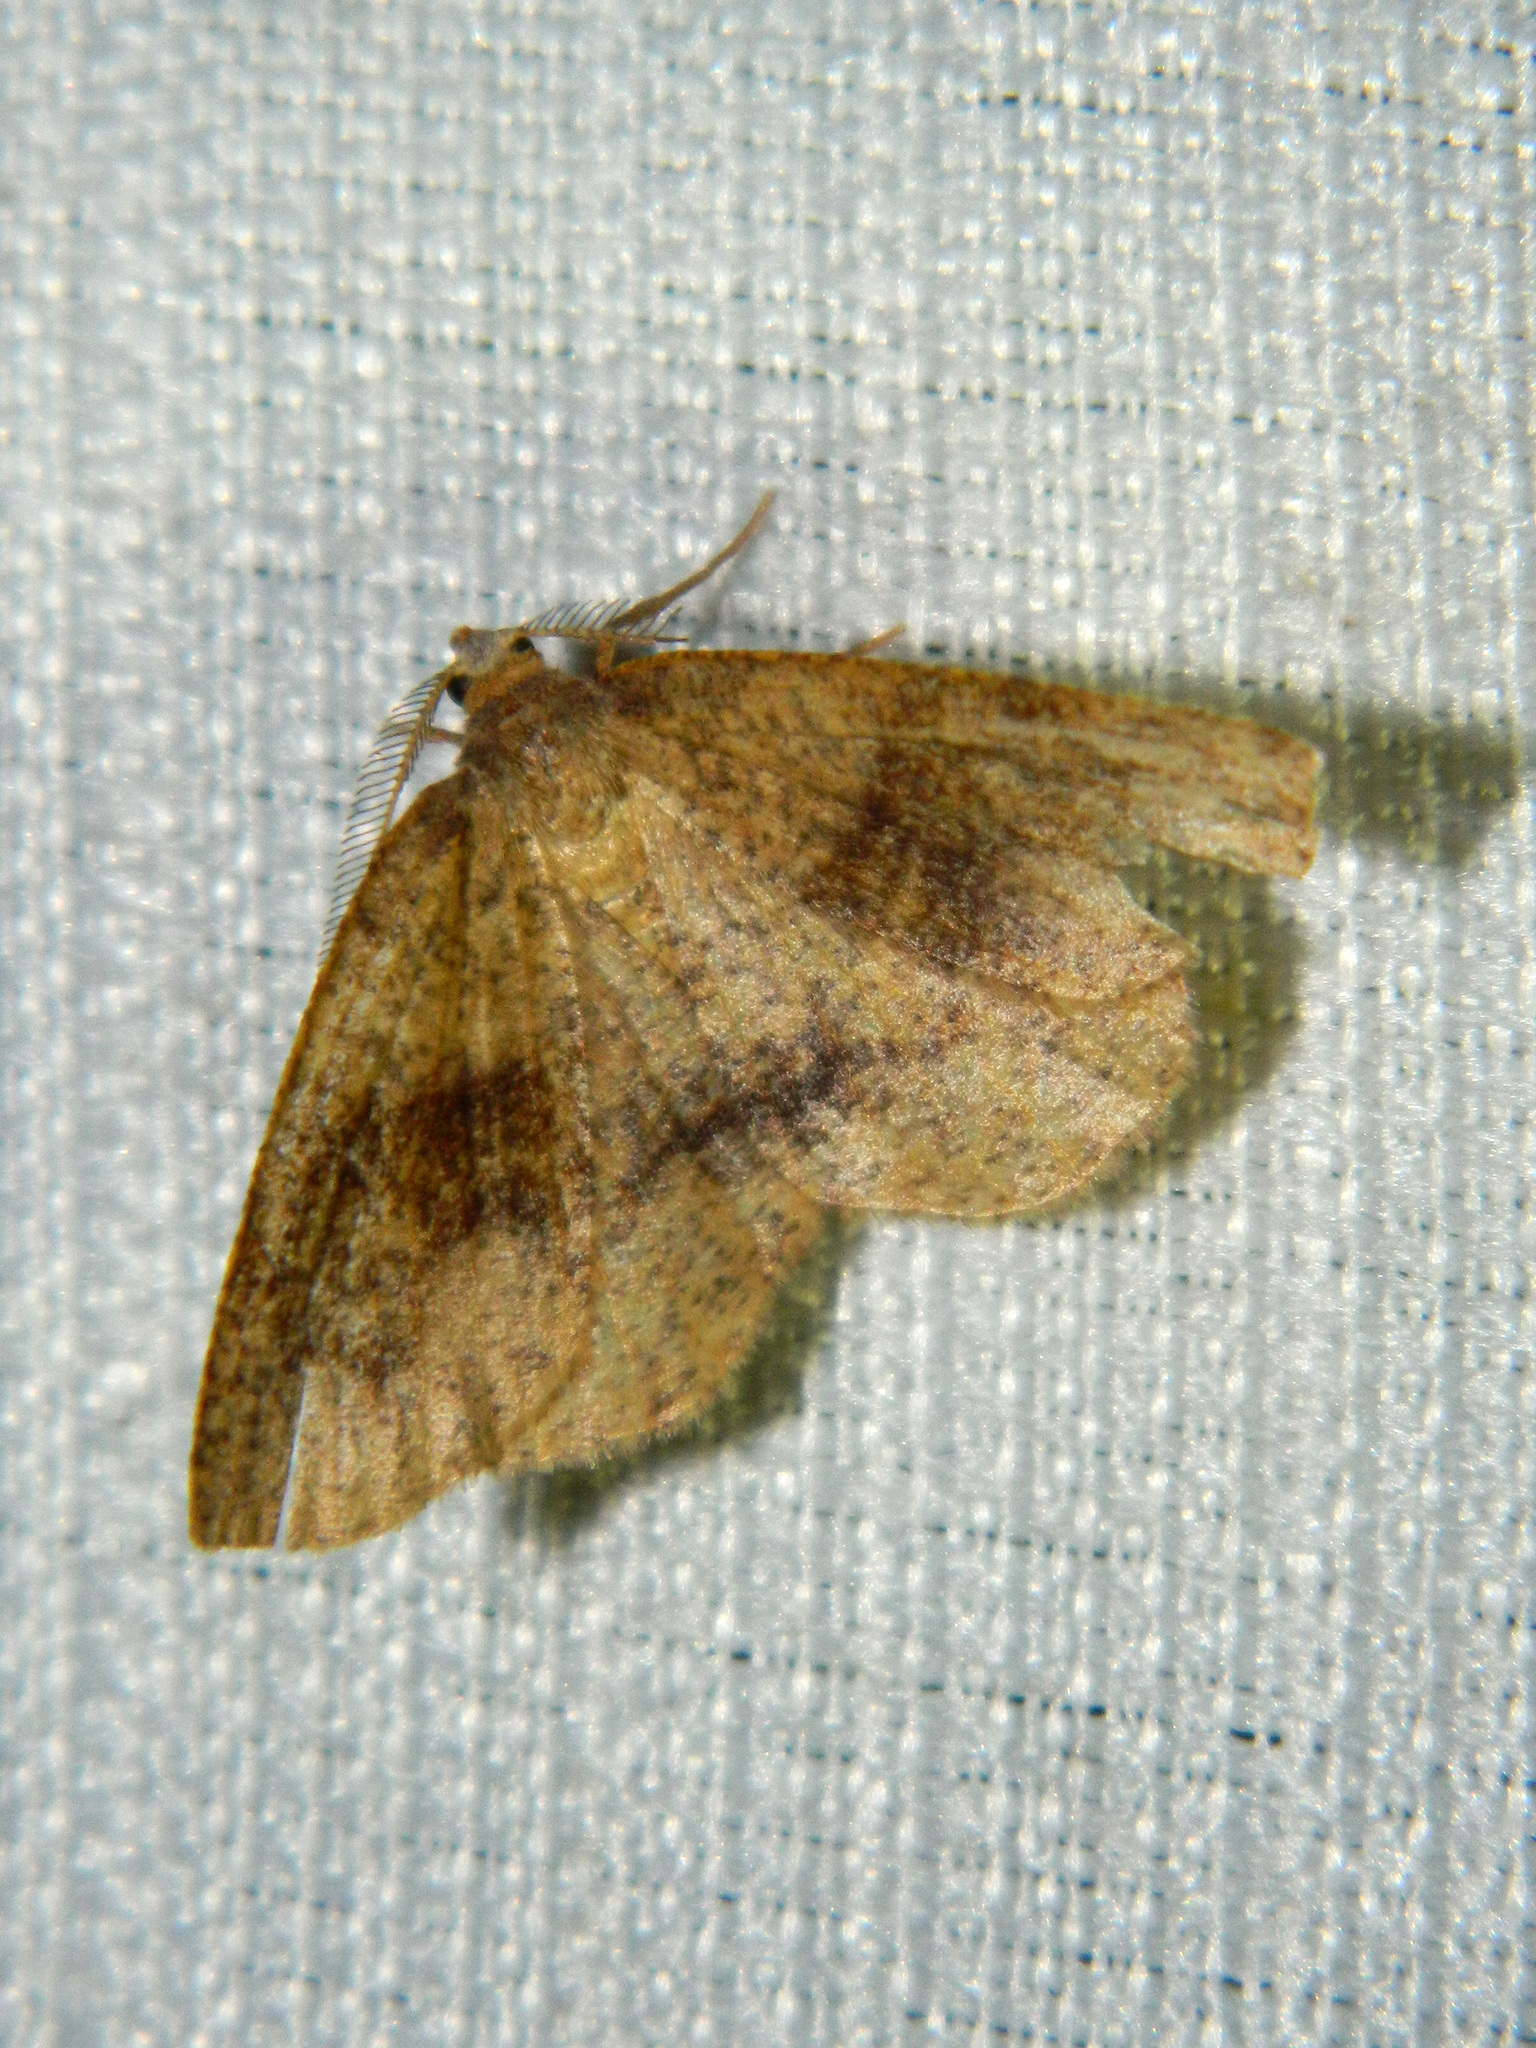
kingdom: Animalia
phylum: Arthropoda
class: Insecta
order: Lepidoptera
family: Geometridae
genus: Plagodis
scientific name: Plagodis pulveraria
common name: Barred umber
